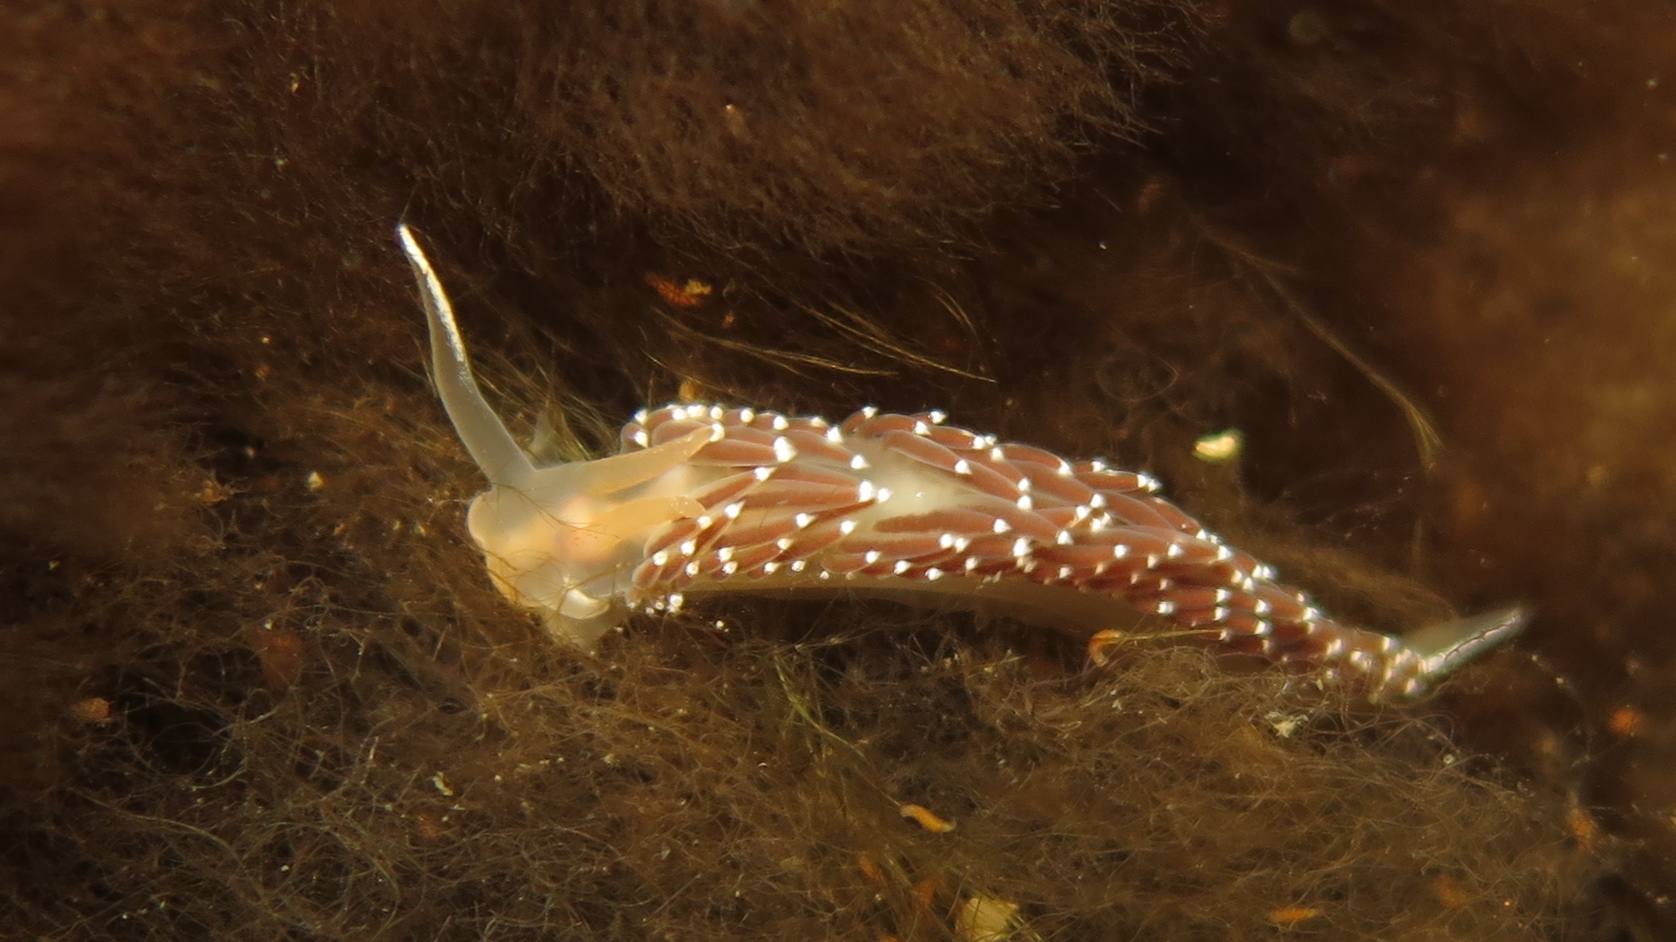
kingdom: Animalia
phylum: Mollusca
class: Gastropoda
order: Nudibranchia
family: Coryphellidae
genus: Coryphella
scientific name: Coryphella verrucosa
